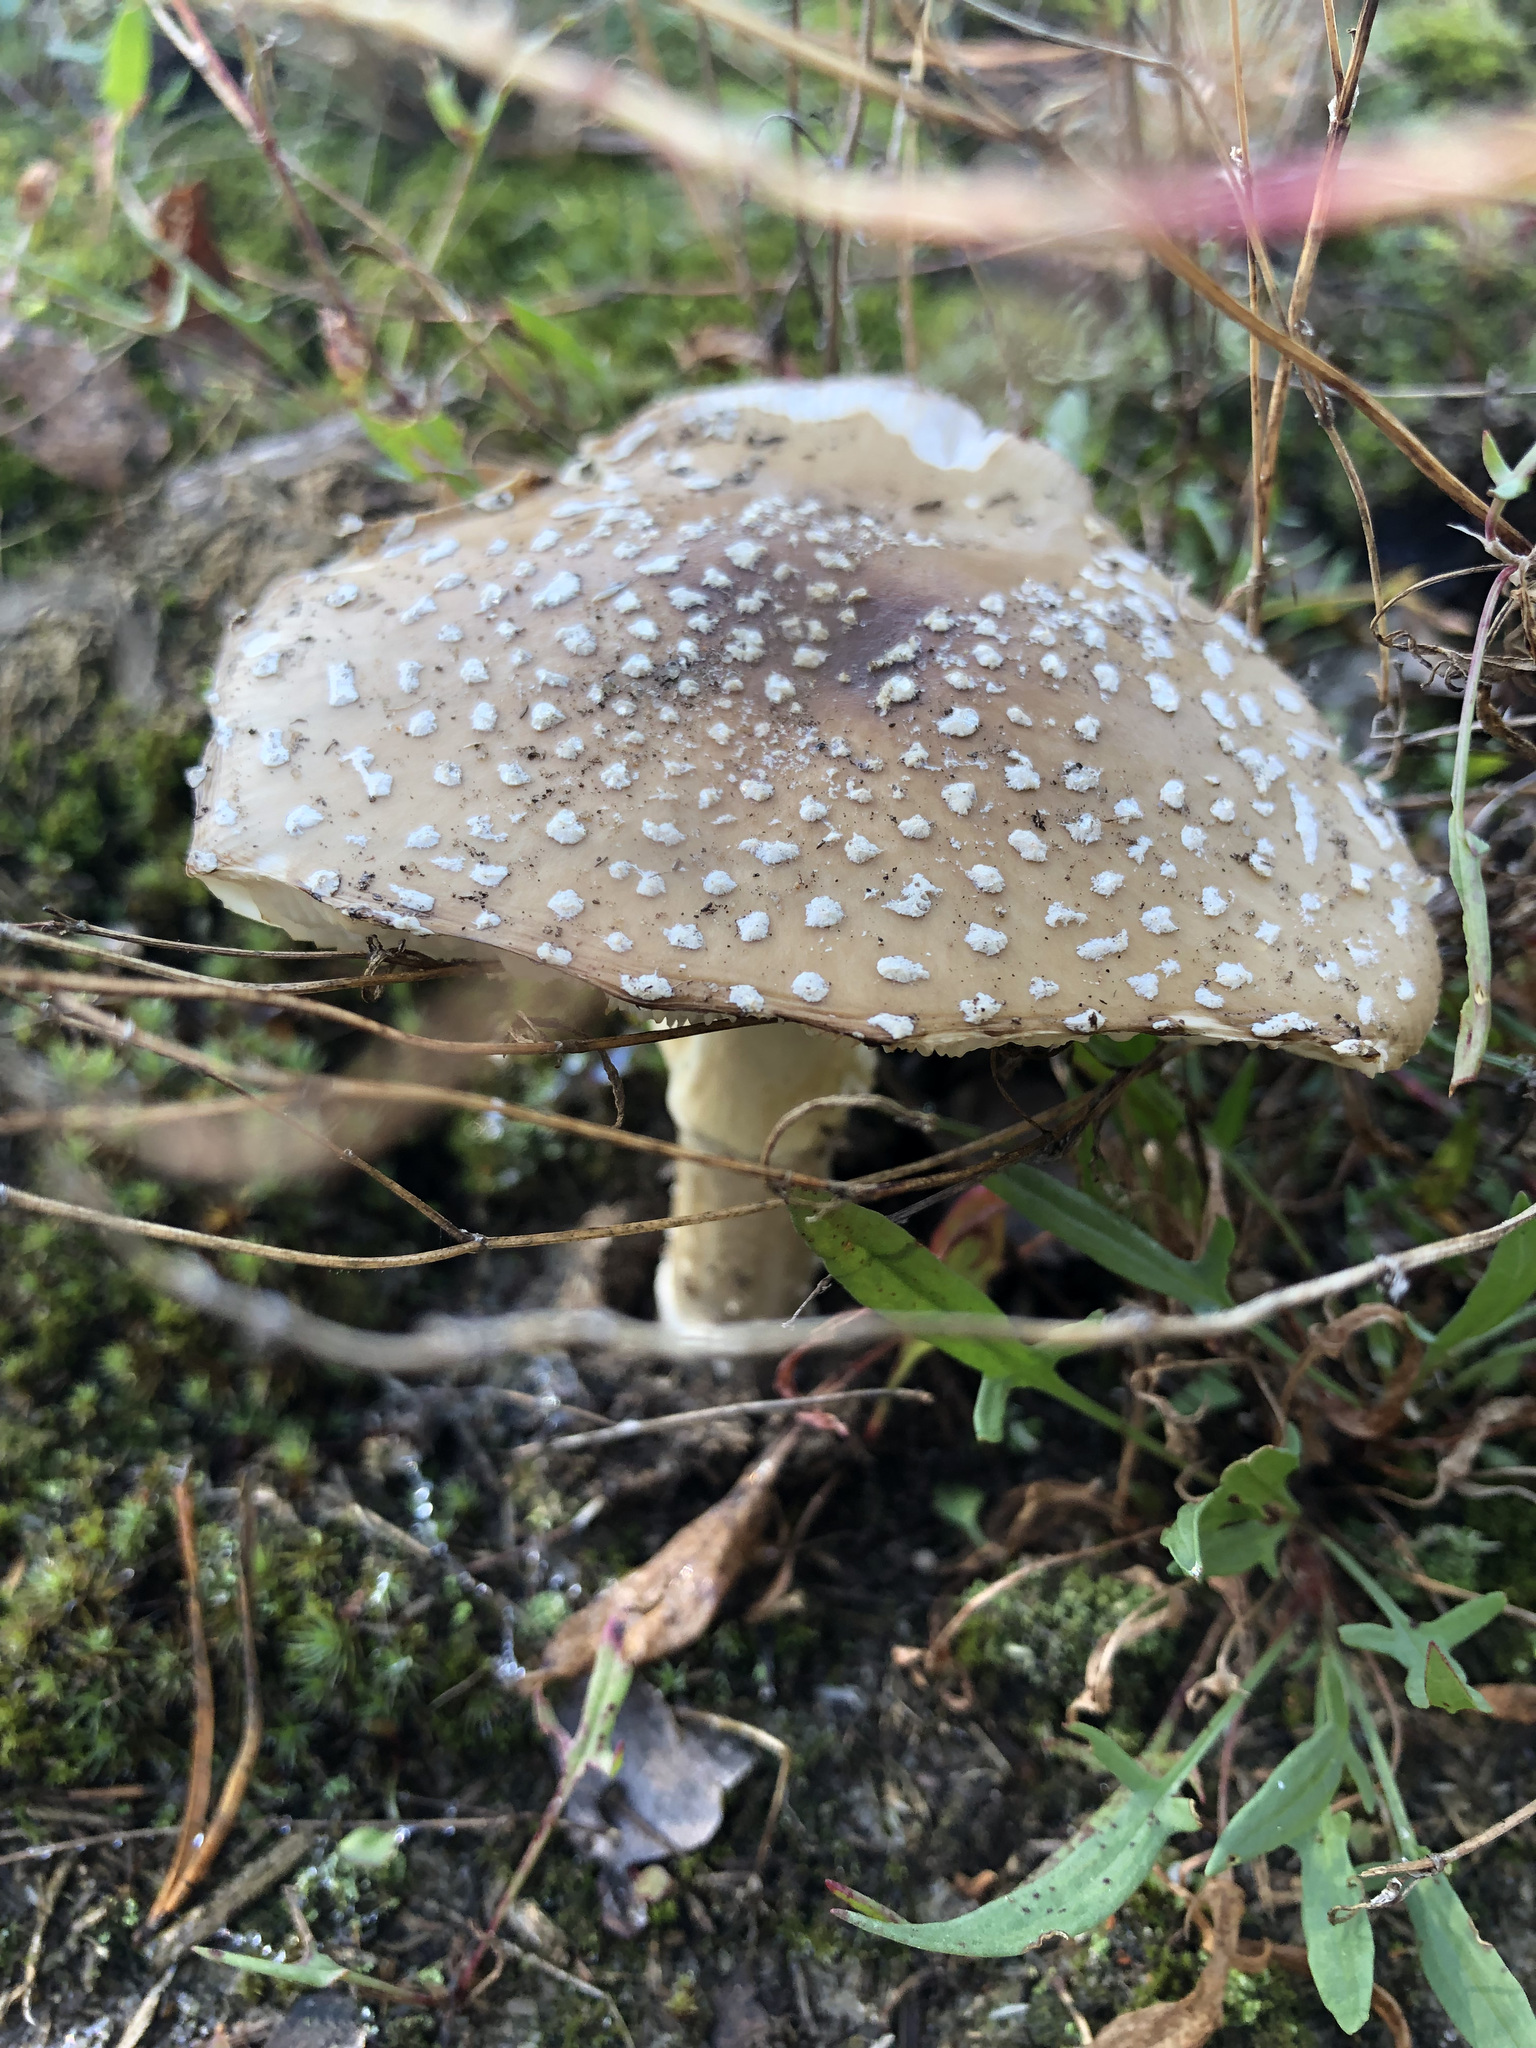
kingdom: Fungi
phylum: Basidiomycota
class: Agaricomycetes
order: Agaricales
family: Amanitaceae
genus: Amanita
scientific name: Amanita pantherina
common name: Panthercap
